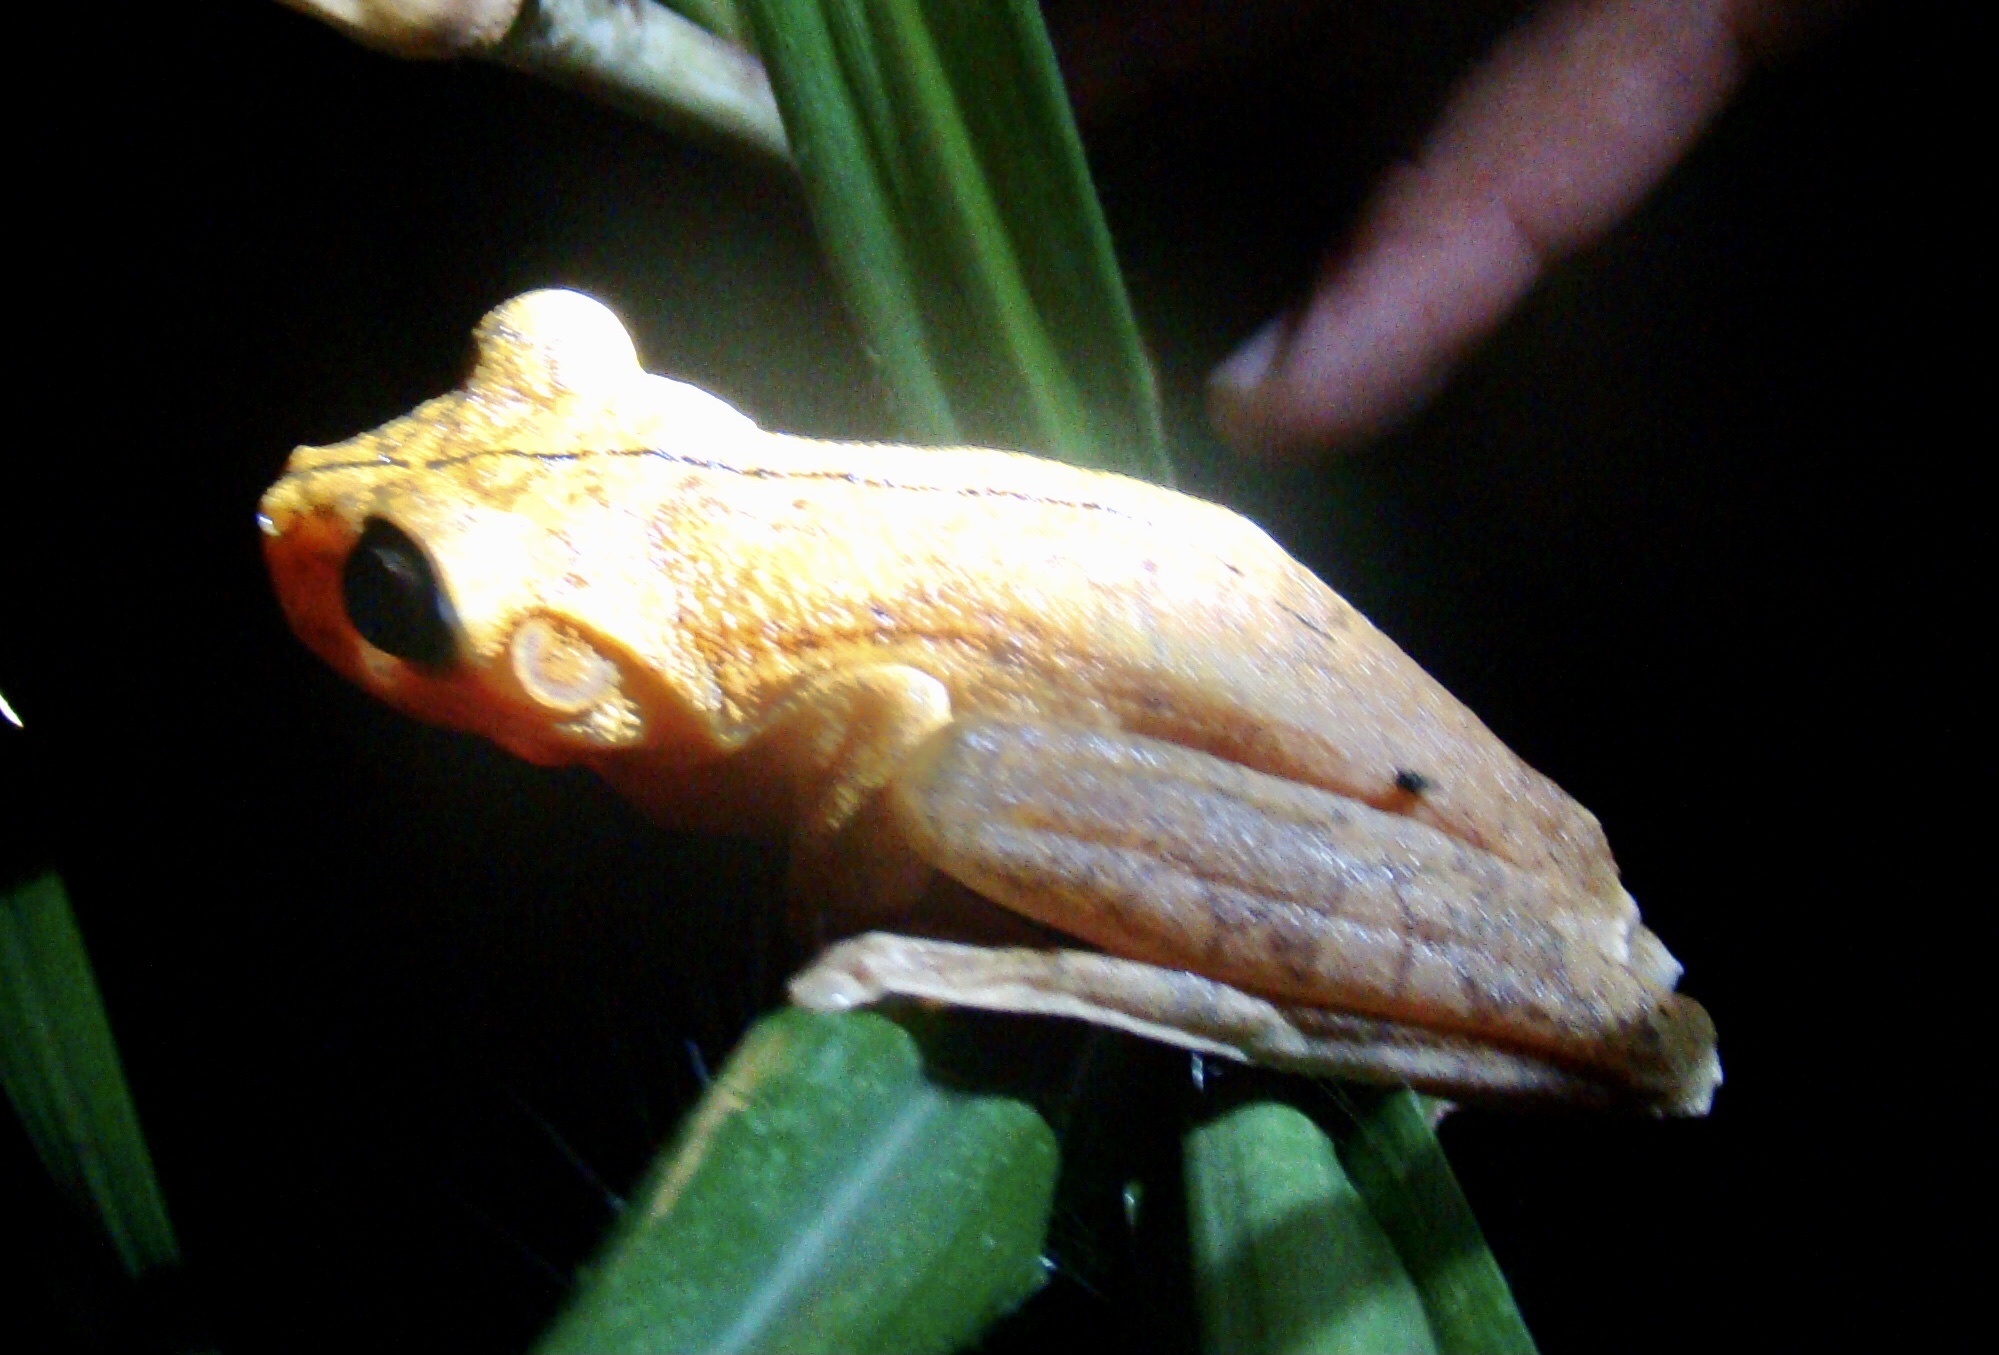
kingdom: Animalia
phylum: Chordata
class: Amphibia
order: Anura
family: Hylidae
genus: Boana
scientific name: Boana rosenbergi
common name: Rosenberg´s gladiator treefrog
